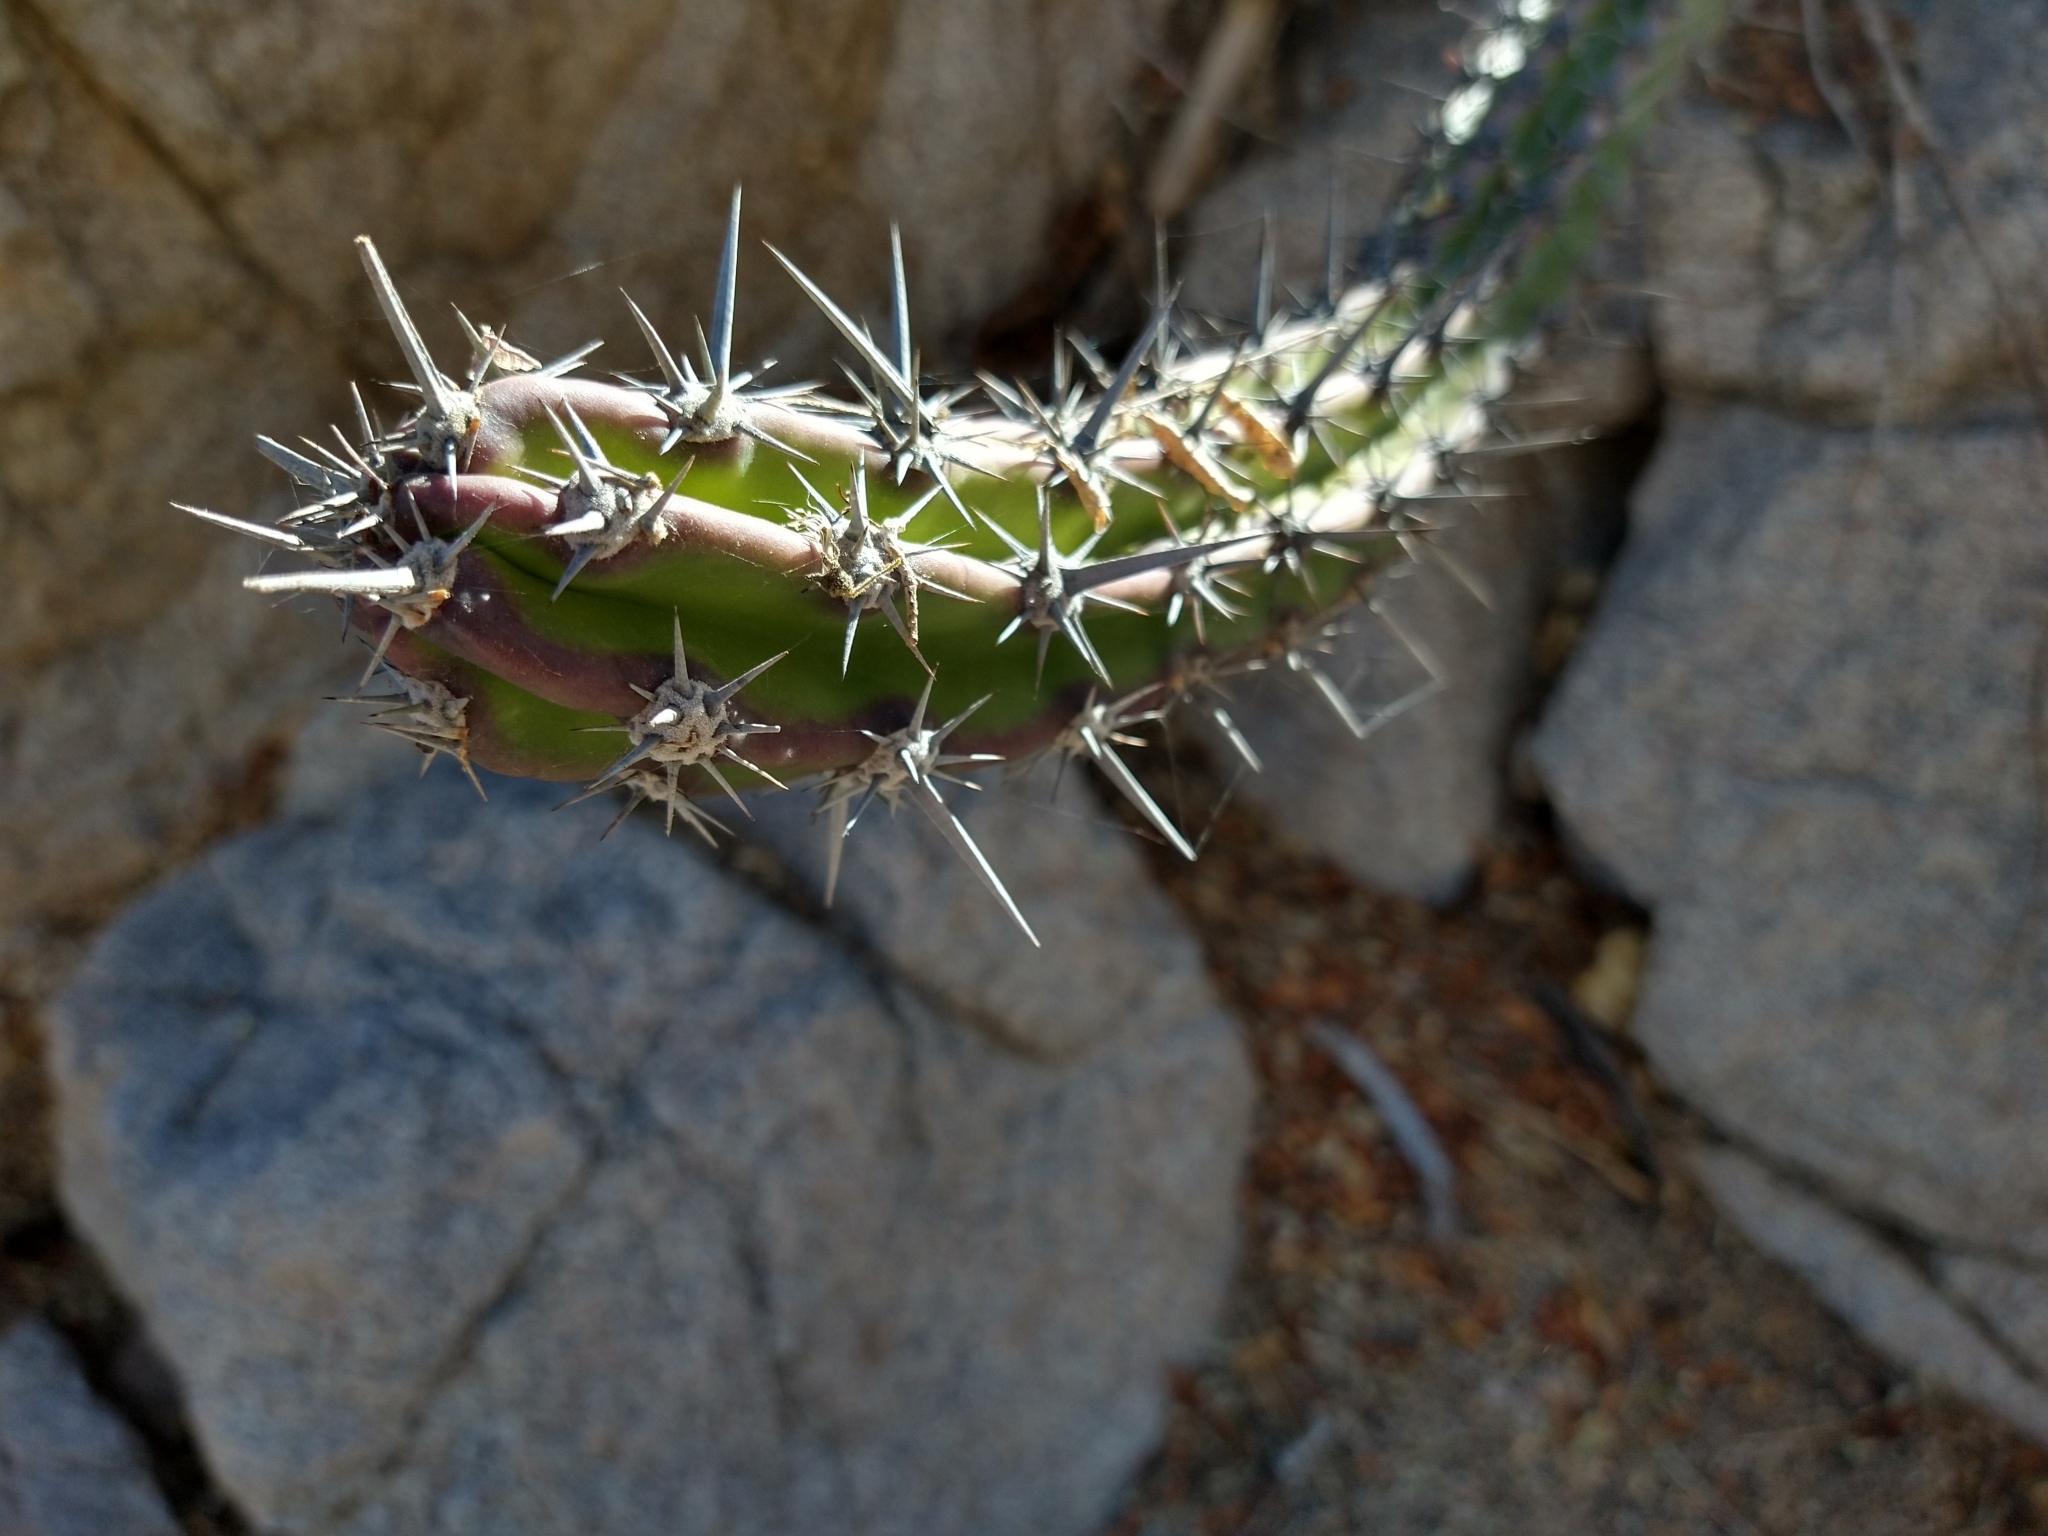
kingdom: Plantae
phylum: Tracheophyta
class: Magnoliopsida
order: Caryophyllales
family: Cactaceae
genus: Stenocereus
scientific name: Stenocereus gummosus
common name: Dagger cactus
